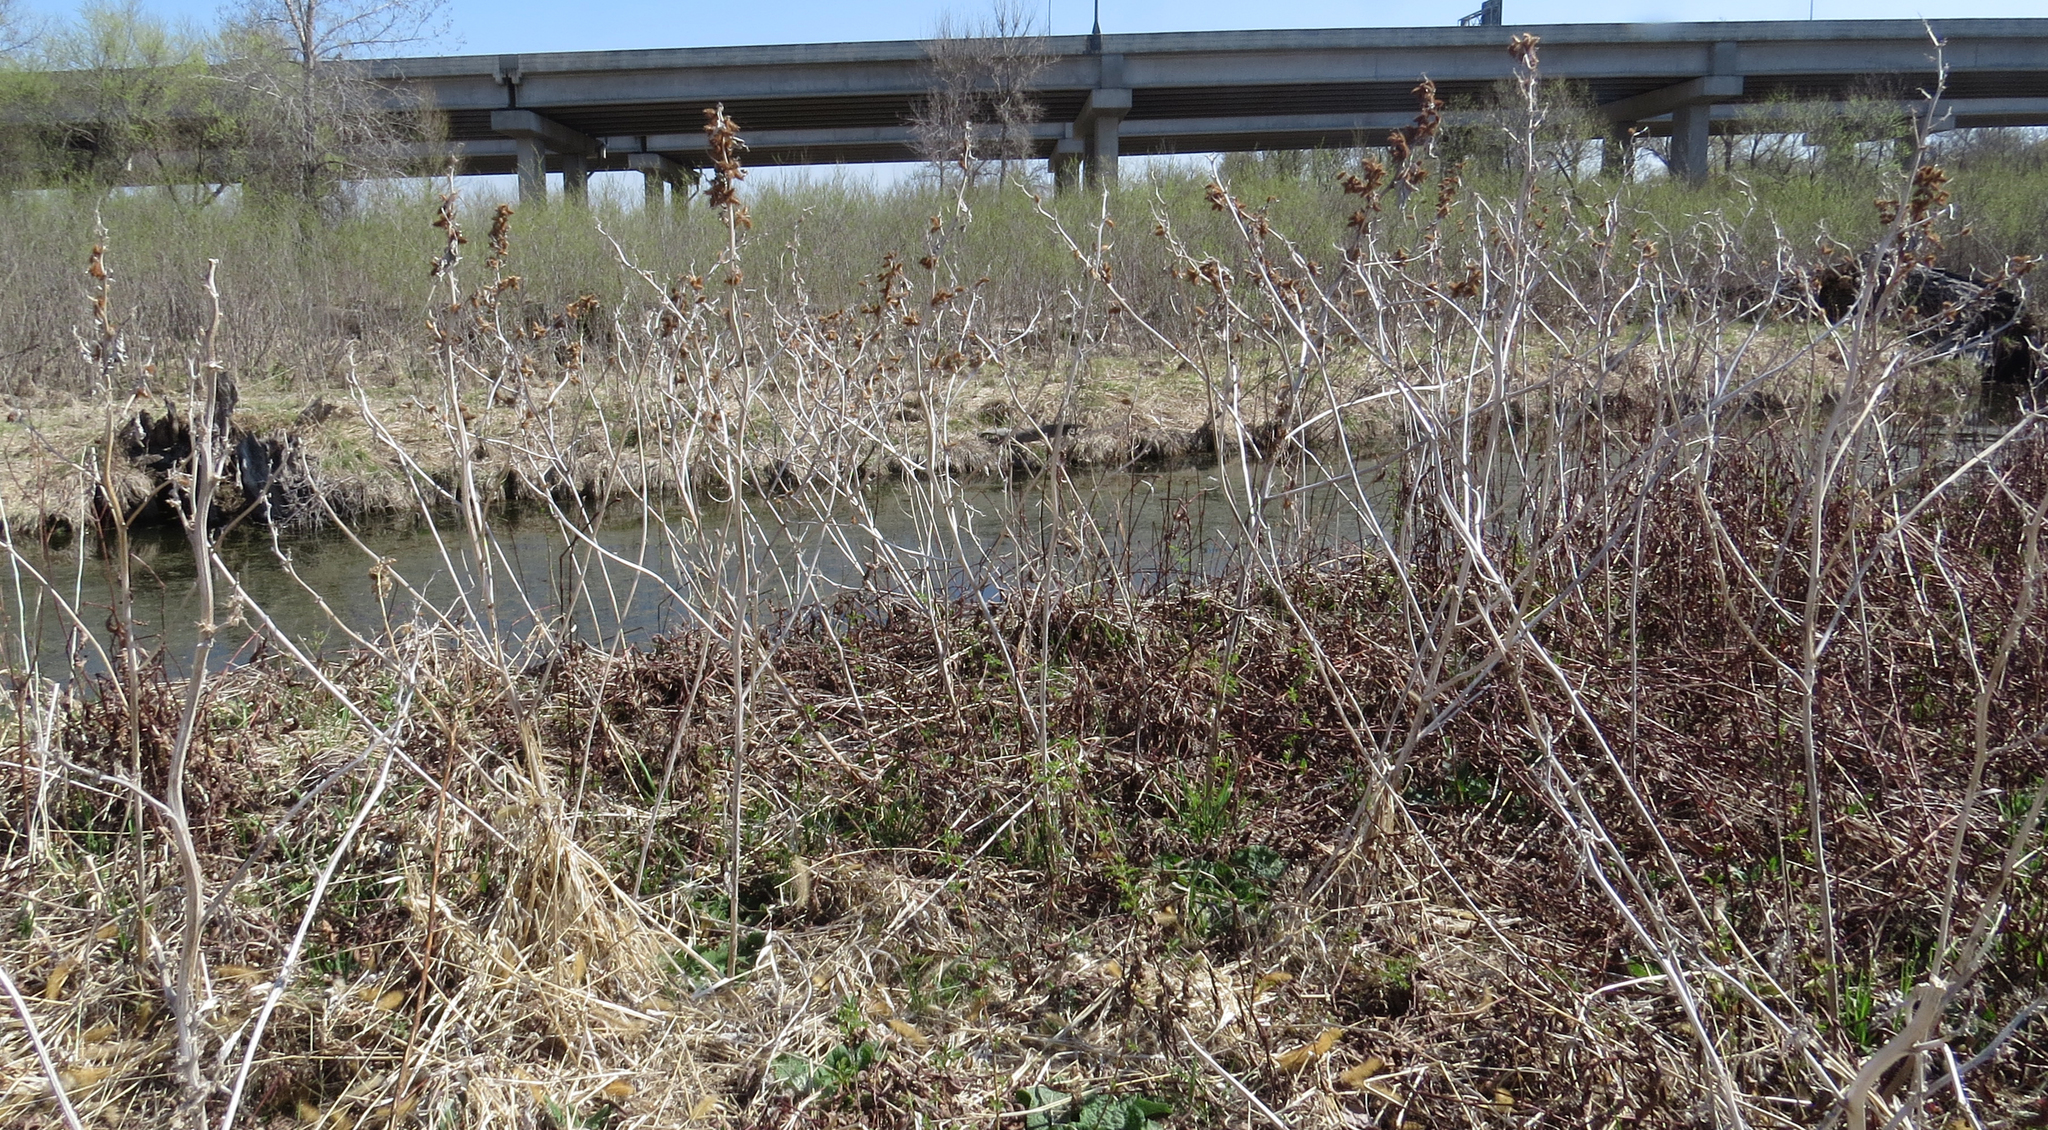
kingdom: Plantae
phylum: Tracheophyta
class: Magnoliopsida
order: Asterales
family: Asteraceae
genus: Xanthium
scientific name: Xanthium strumarium
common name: Rough cocklebur
